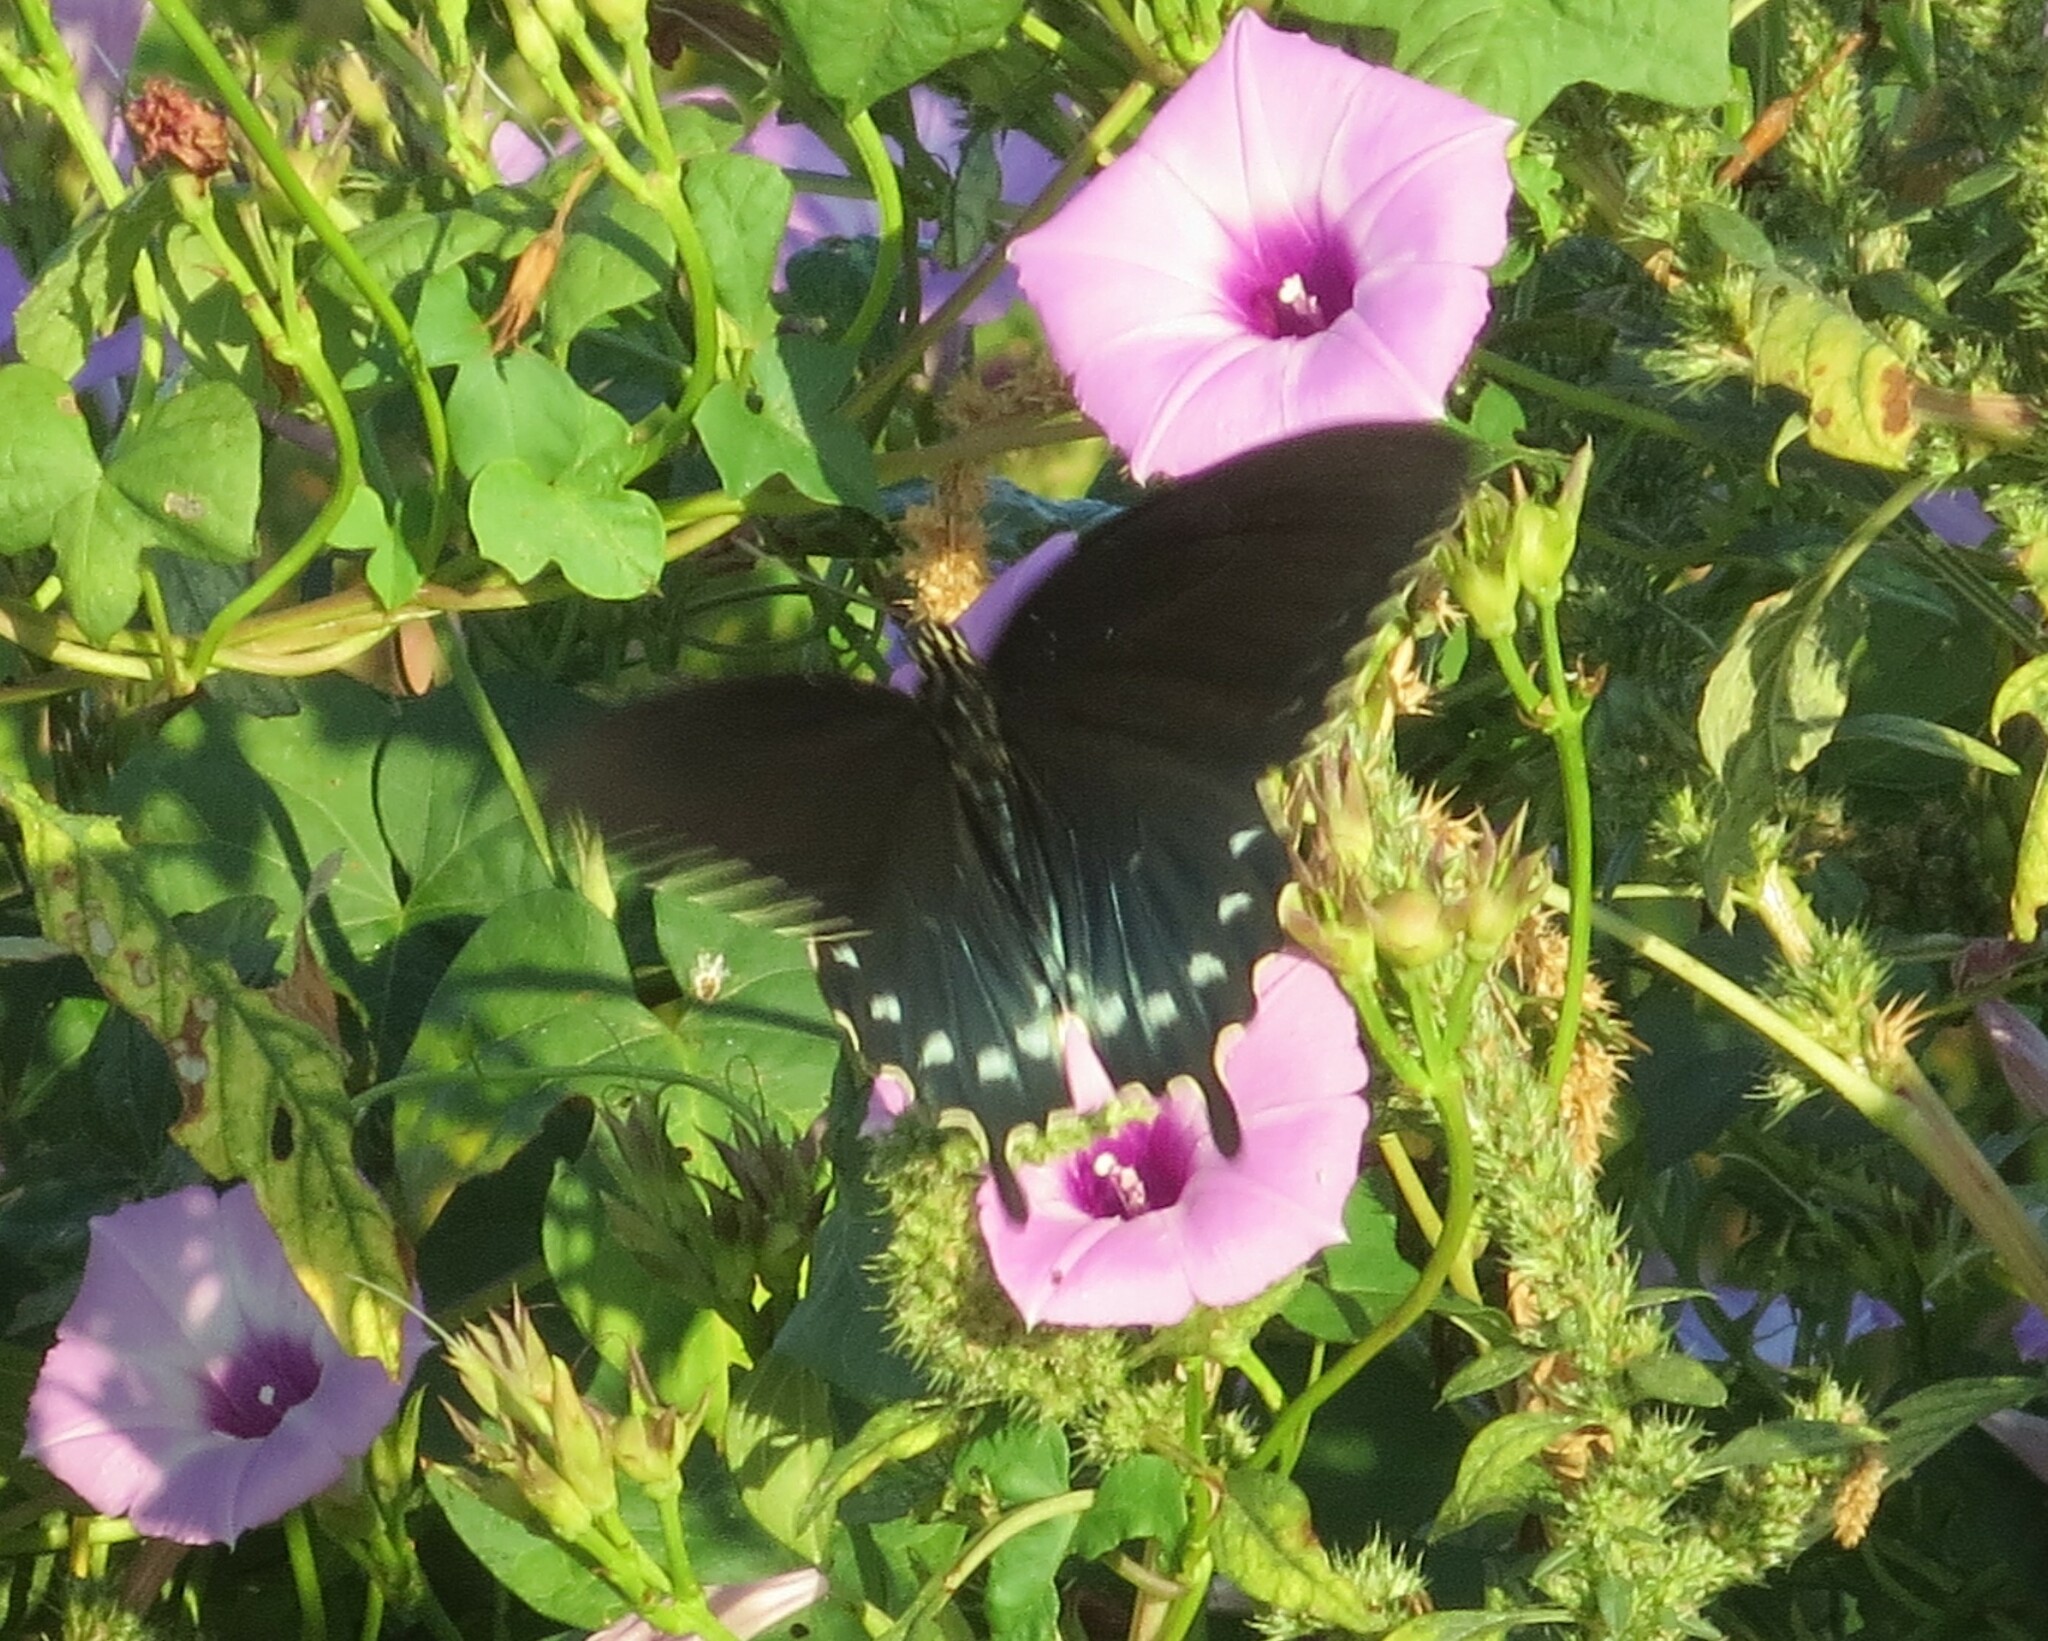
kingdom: Animalia
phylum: Arthropoda
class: Insecta
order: Lepidoptera
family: Papilionidae
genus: Battus
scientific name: Battus philenor
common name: Pipevine swallowtail
